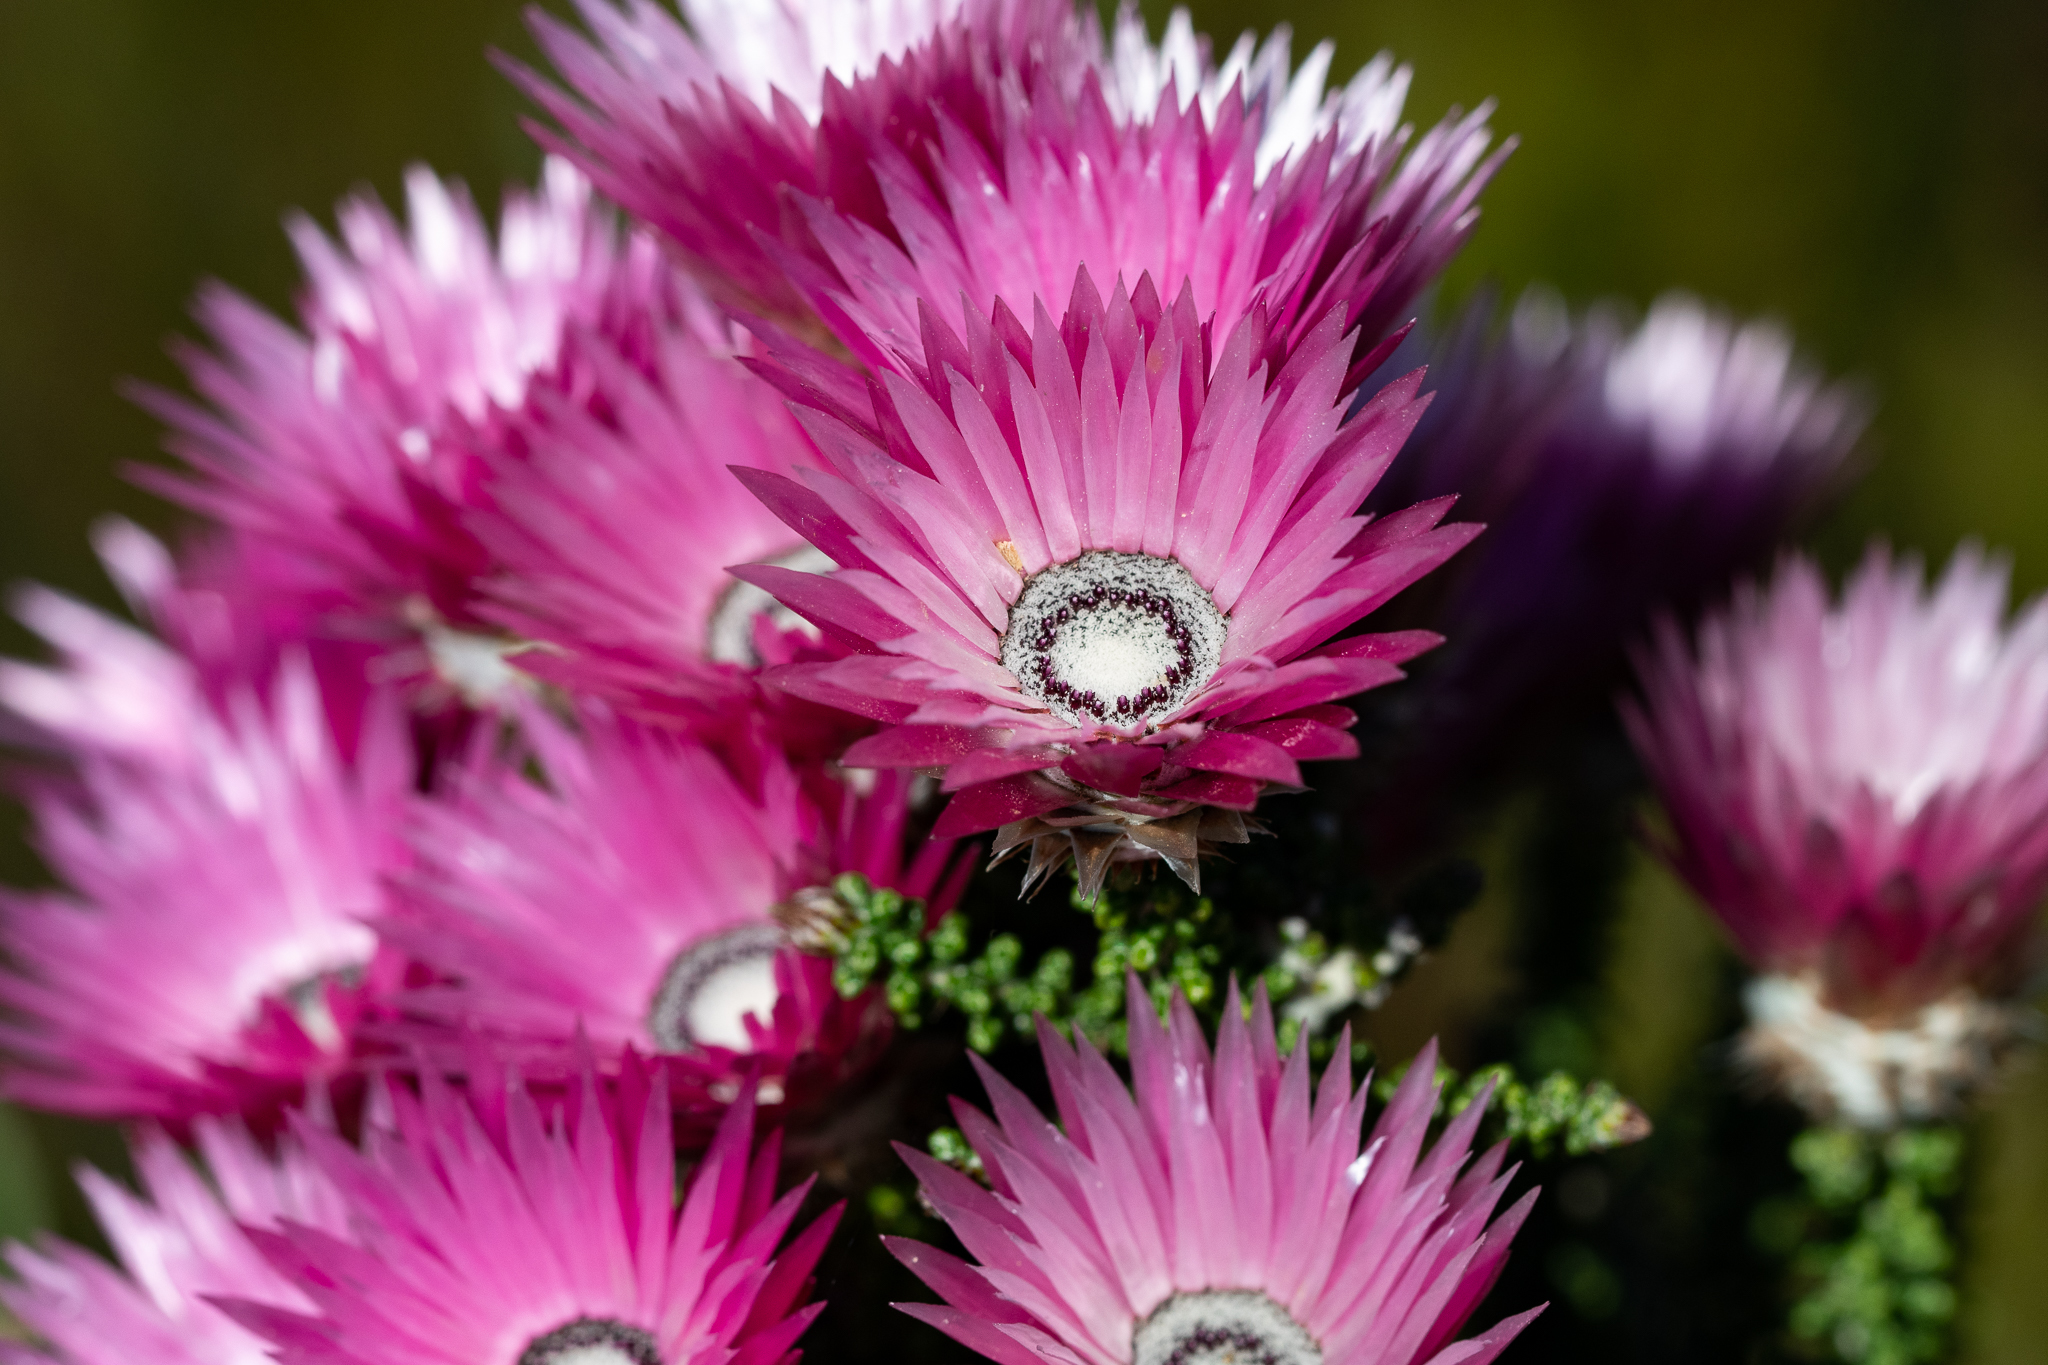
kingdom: Plantae
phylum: Tracheophyta
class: Magnoliopsida
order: Asterales
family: Asteraceae
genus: Phaenocoma
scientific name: Phaenocoma prolifera
